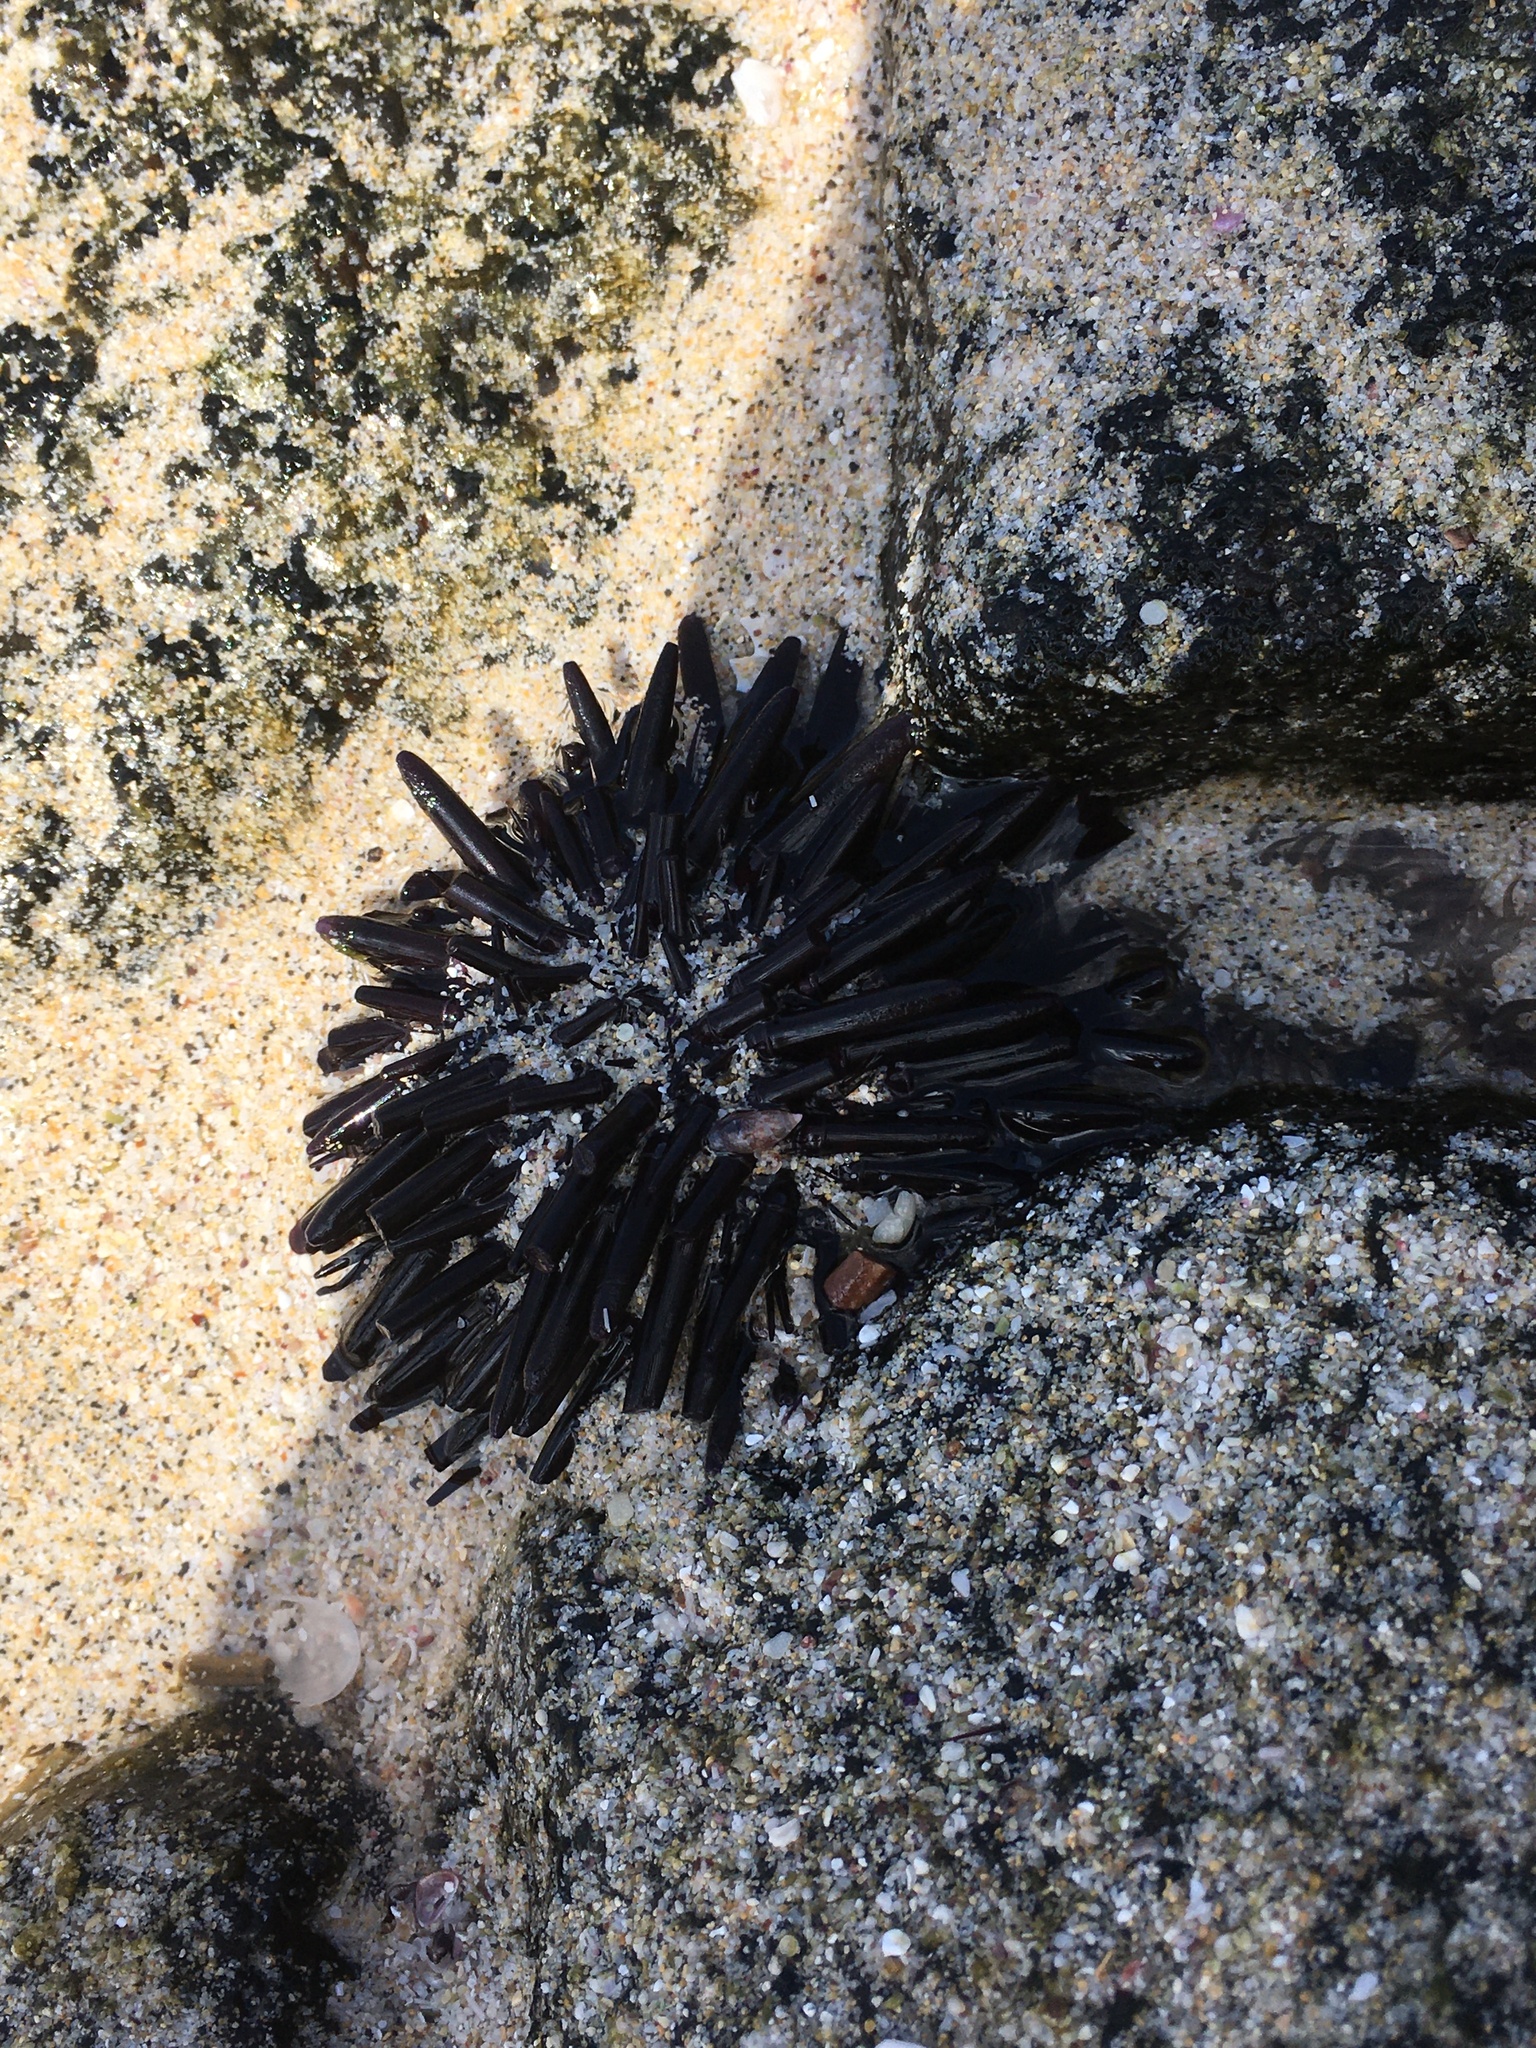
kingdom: Animalia
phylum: Echinodermata
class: Echinoidea
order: Camarodonta
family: Echinometridae
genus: Echinometra
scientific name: Echinometra oblonga
